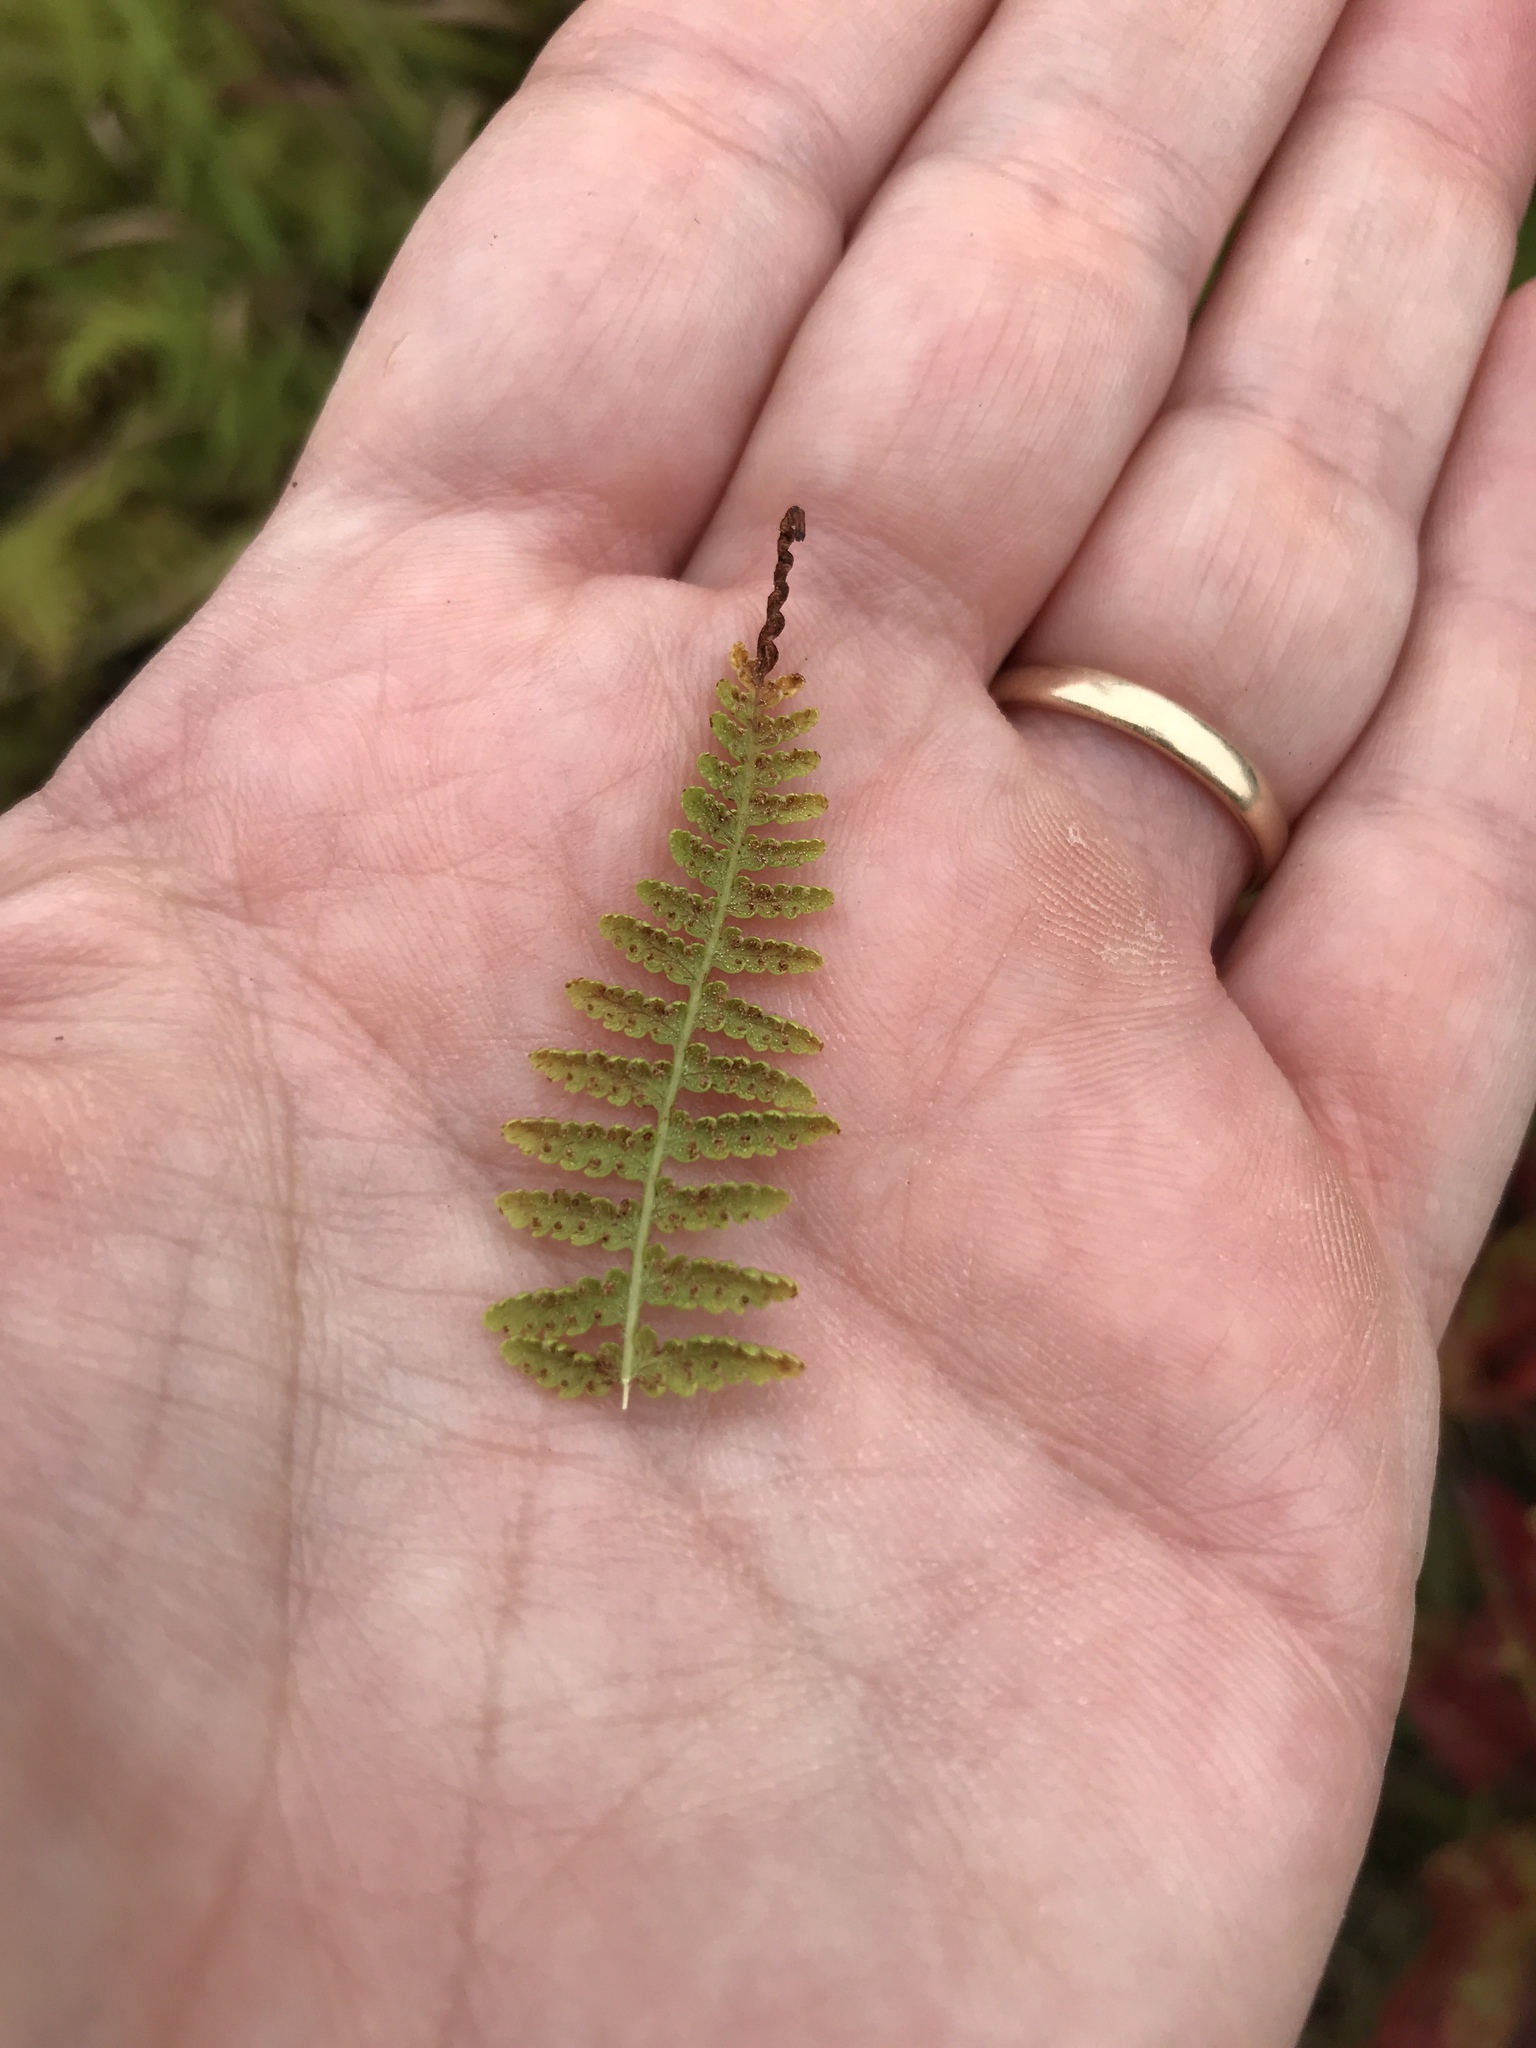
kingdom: Plantae
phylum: Tracheophyta
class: Polypodiopsida
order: Polypodiales
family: Dennstaedtiaceae
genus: Sitobolium
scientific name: Sitobolium punctilobum
